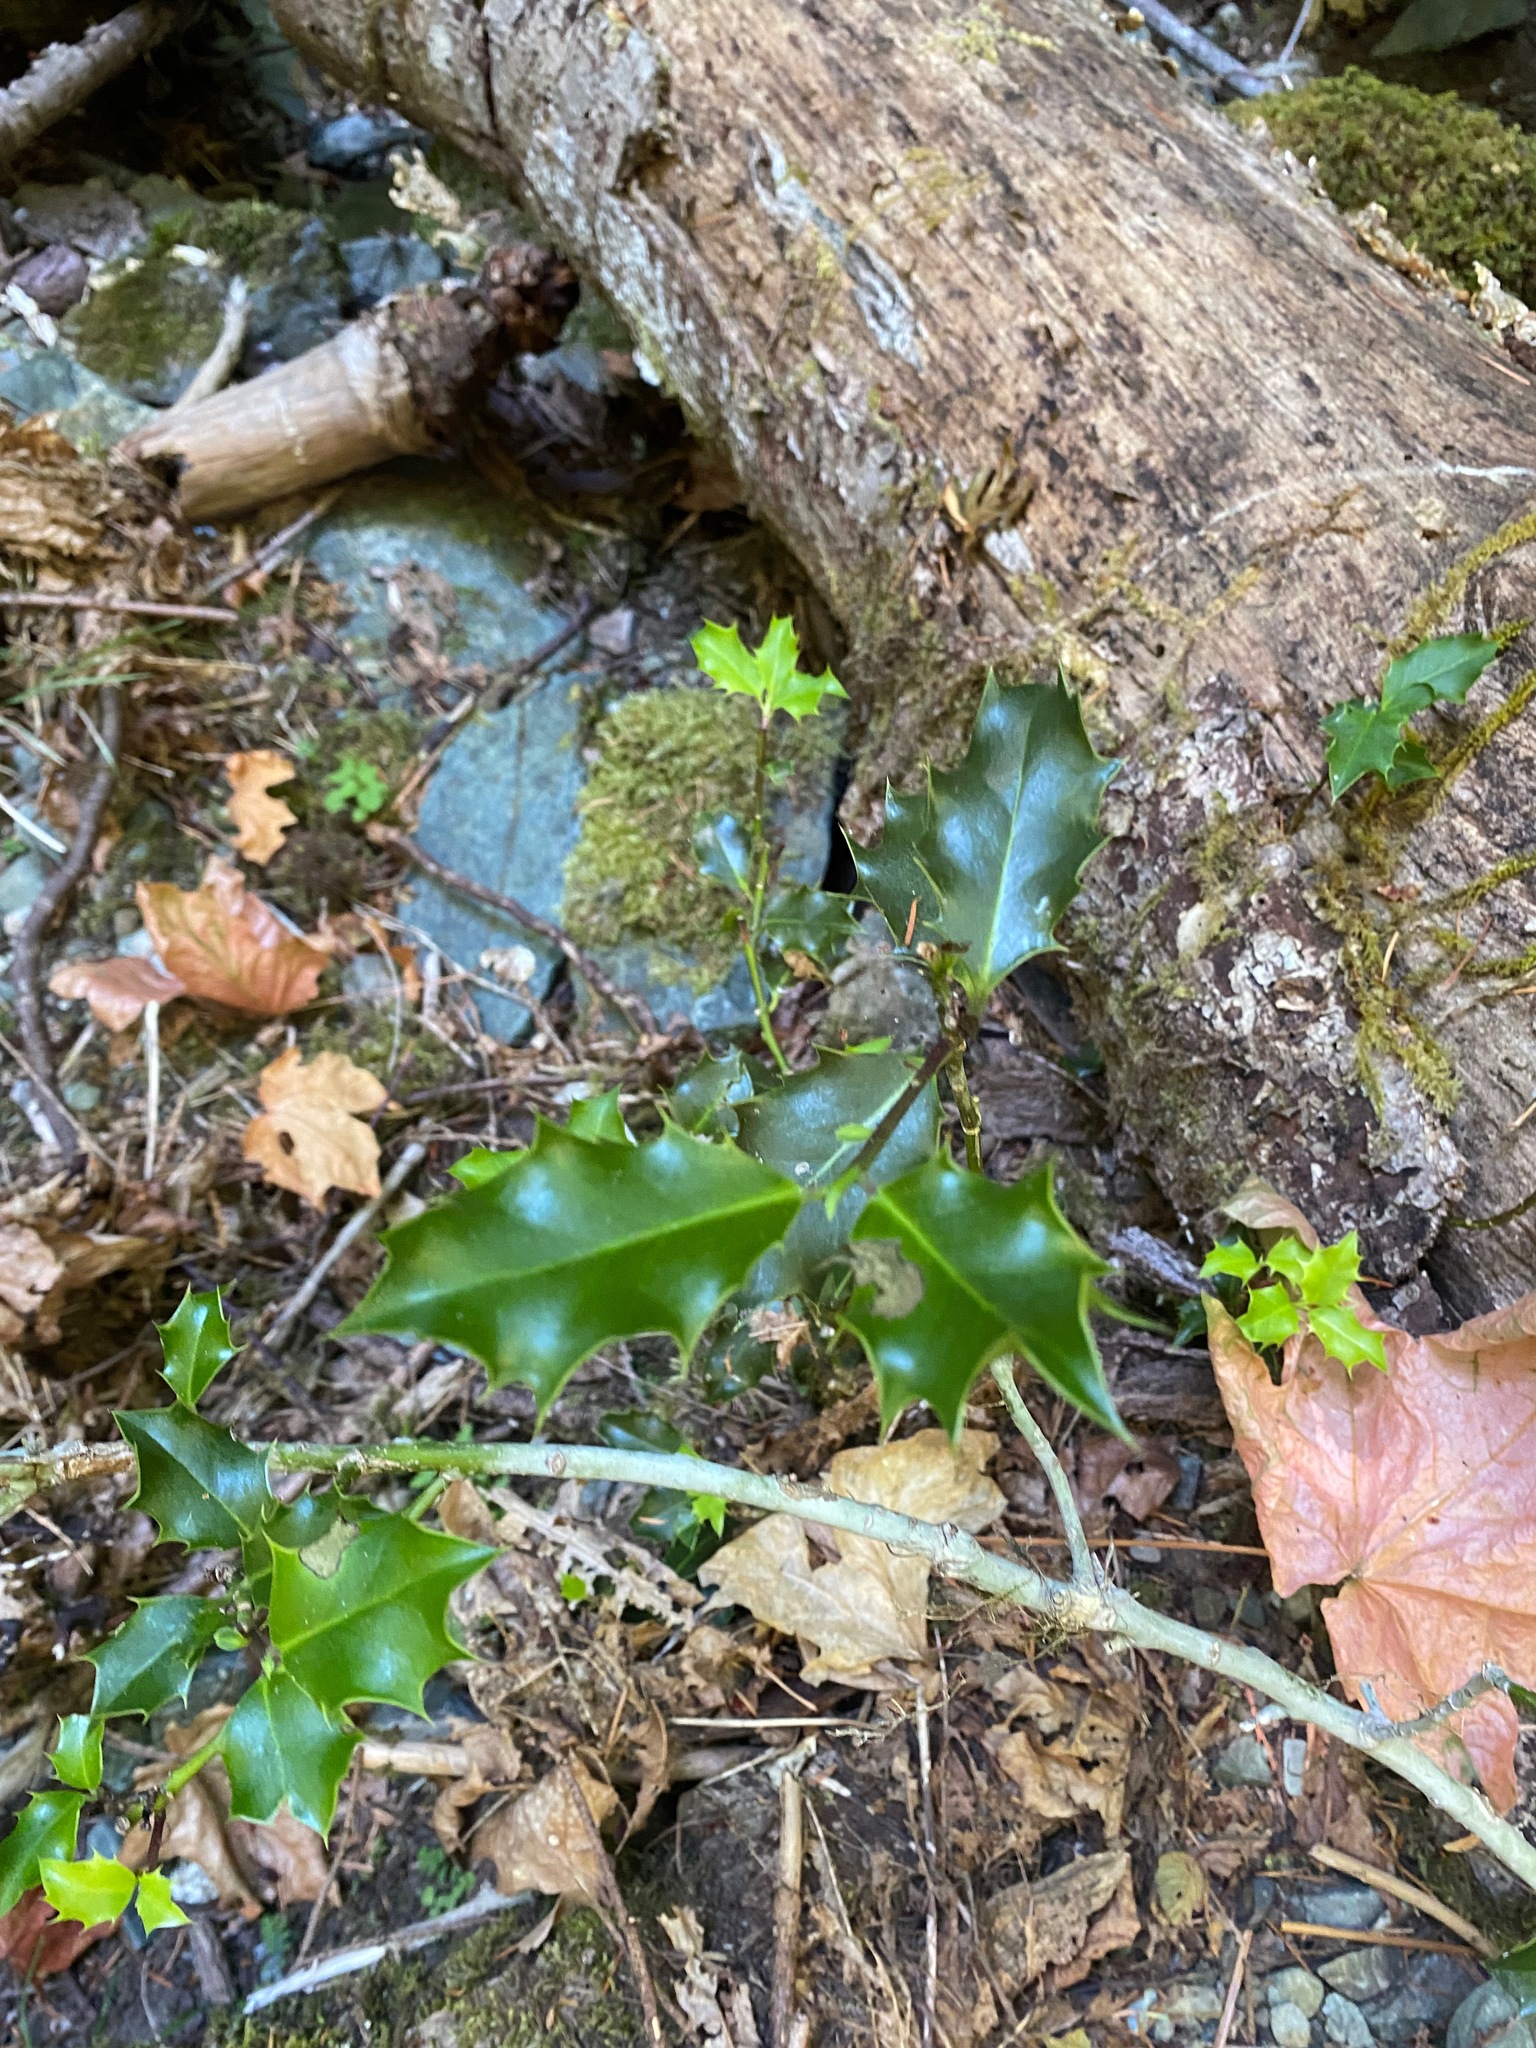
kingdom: Plantae
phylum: Tracheophyta
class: Magnoliopsida
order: Aquifoliales
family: Aquifoliaceae
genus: Ilex
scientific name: Ilex aquifolium
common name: English holly
